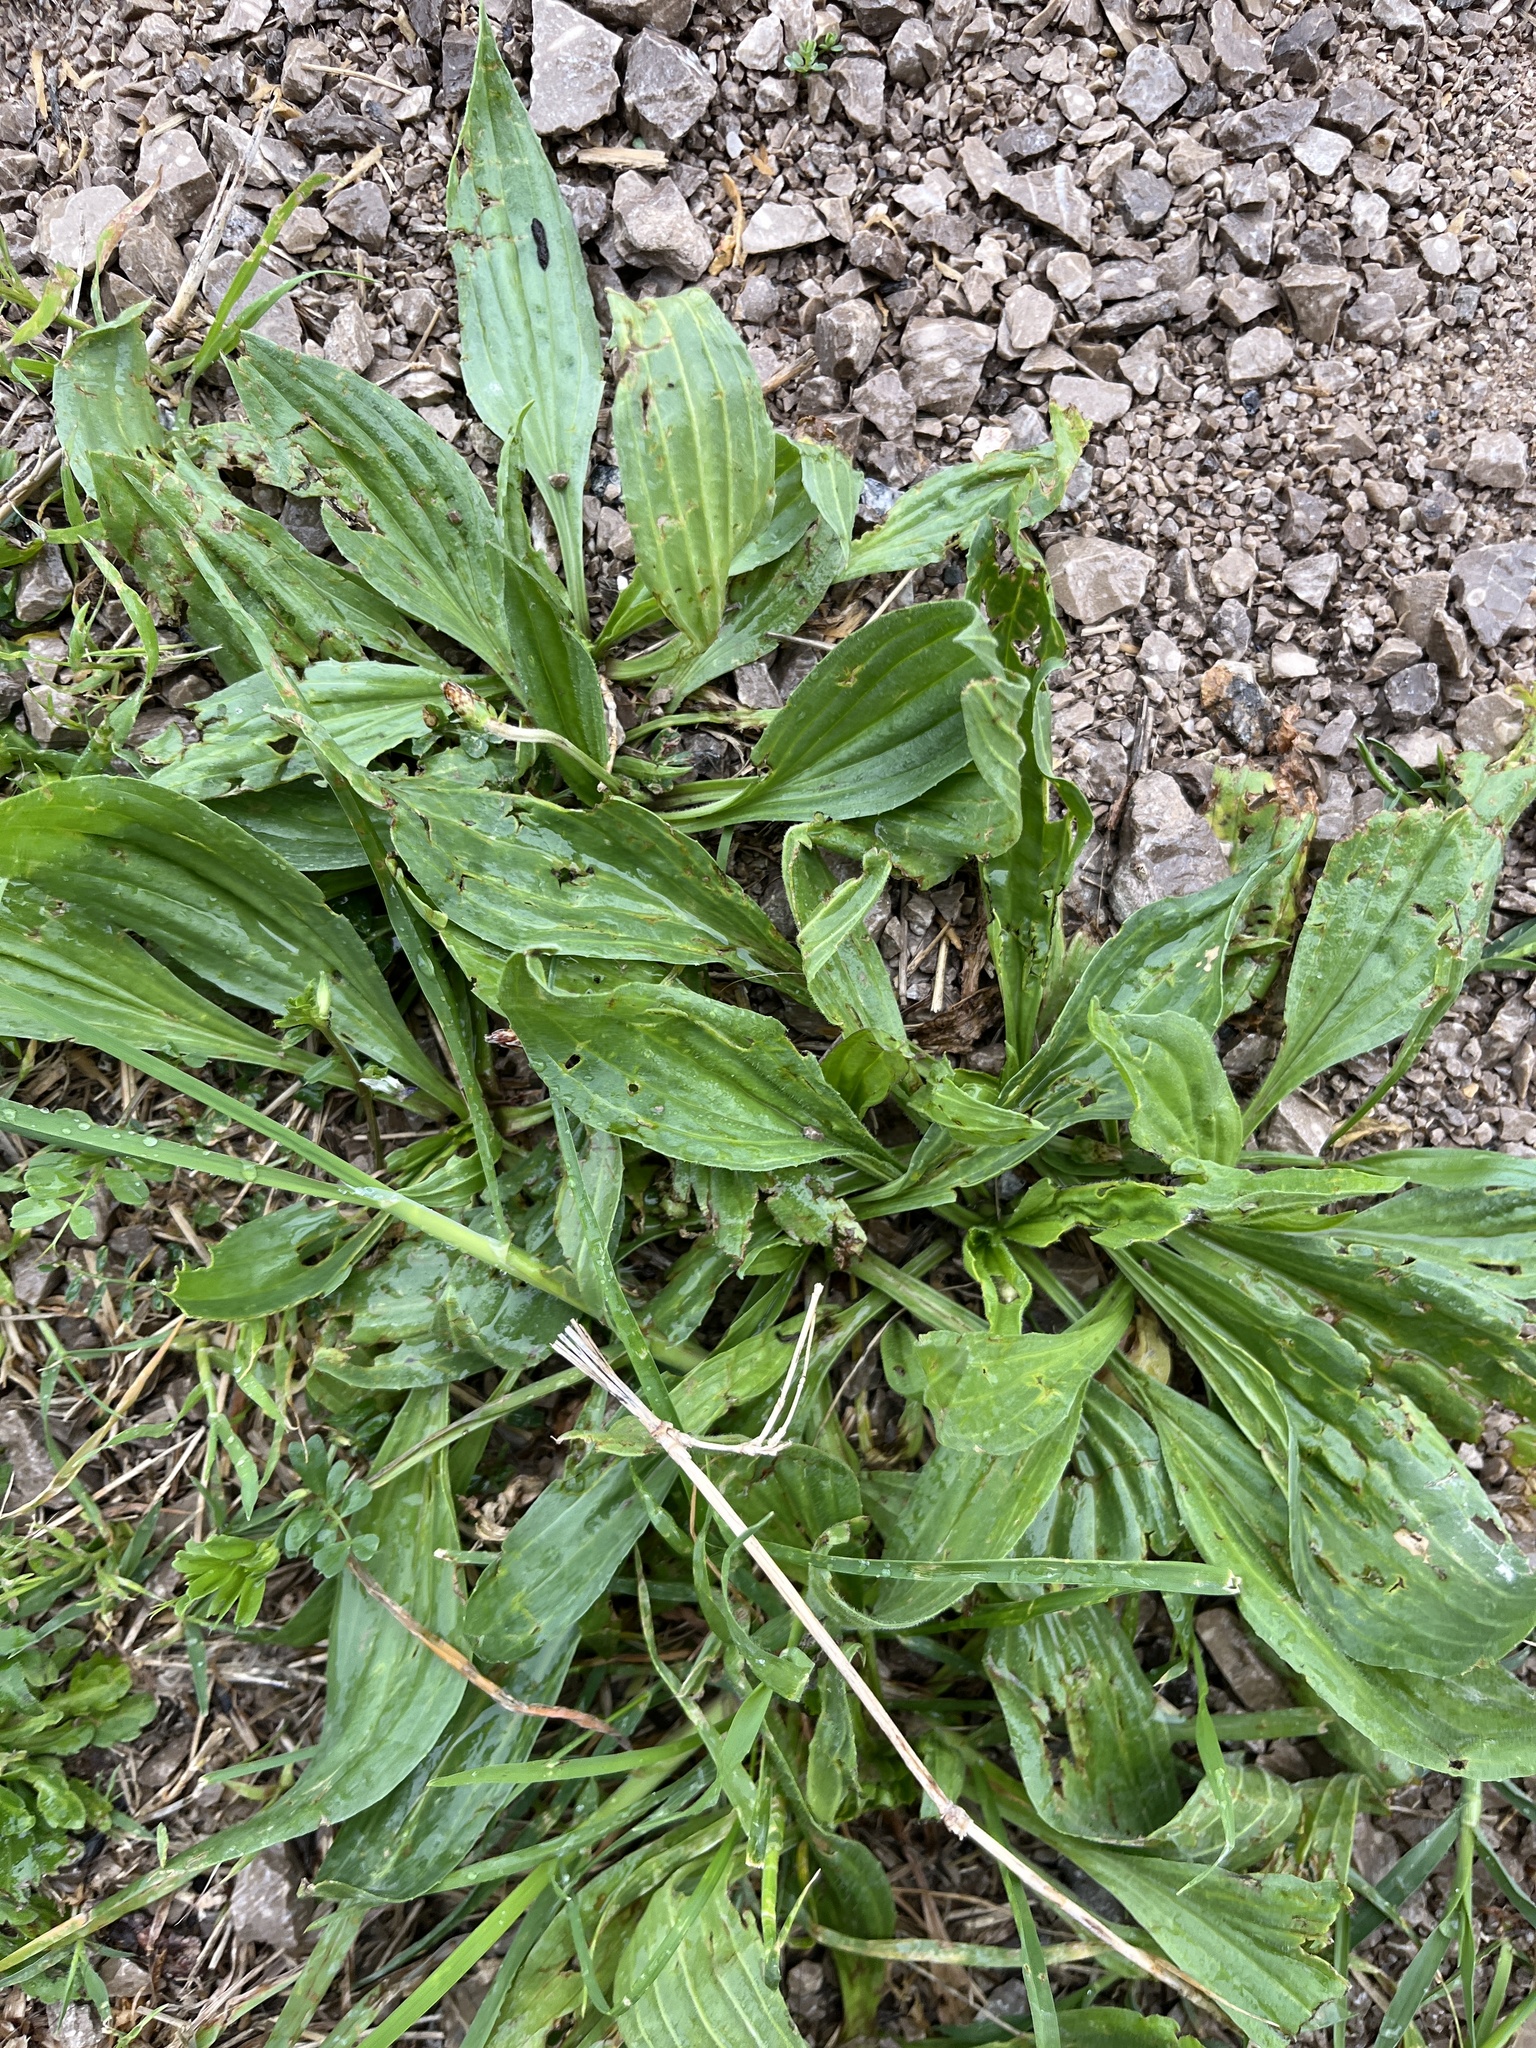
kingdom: Plantae
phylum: Tracheophyta
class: Magnoliopsida
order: Lamiales
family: Plantaginaceae
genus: Plantago
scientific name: Plantago lanceolata
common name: Ribwort plantain
